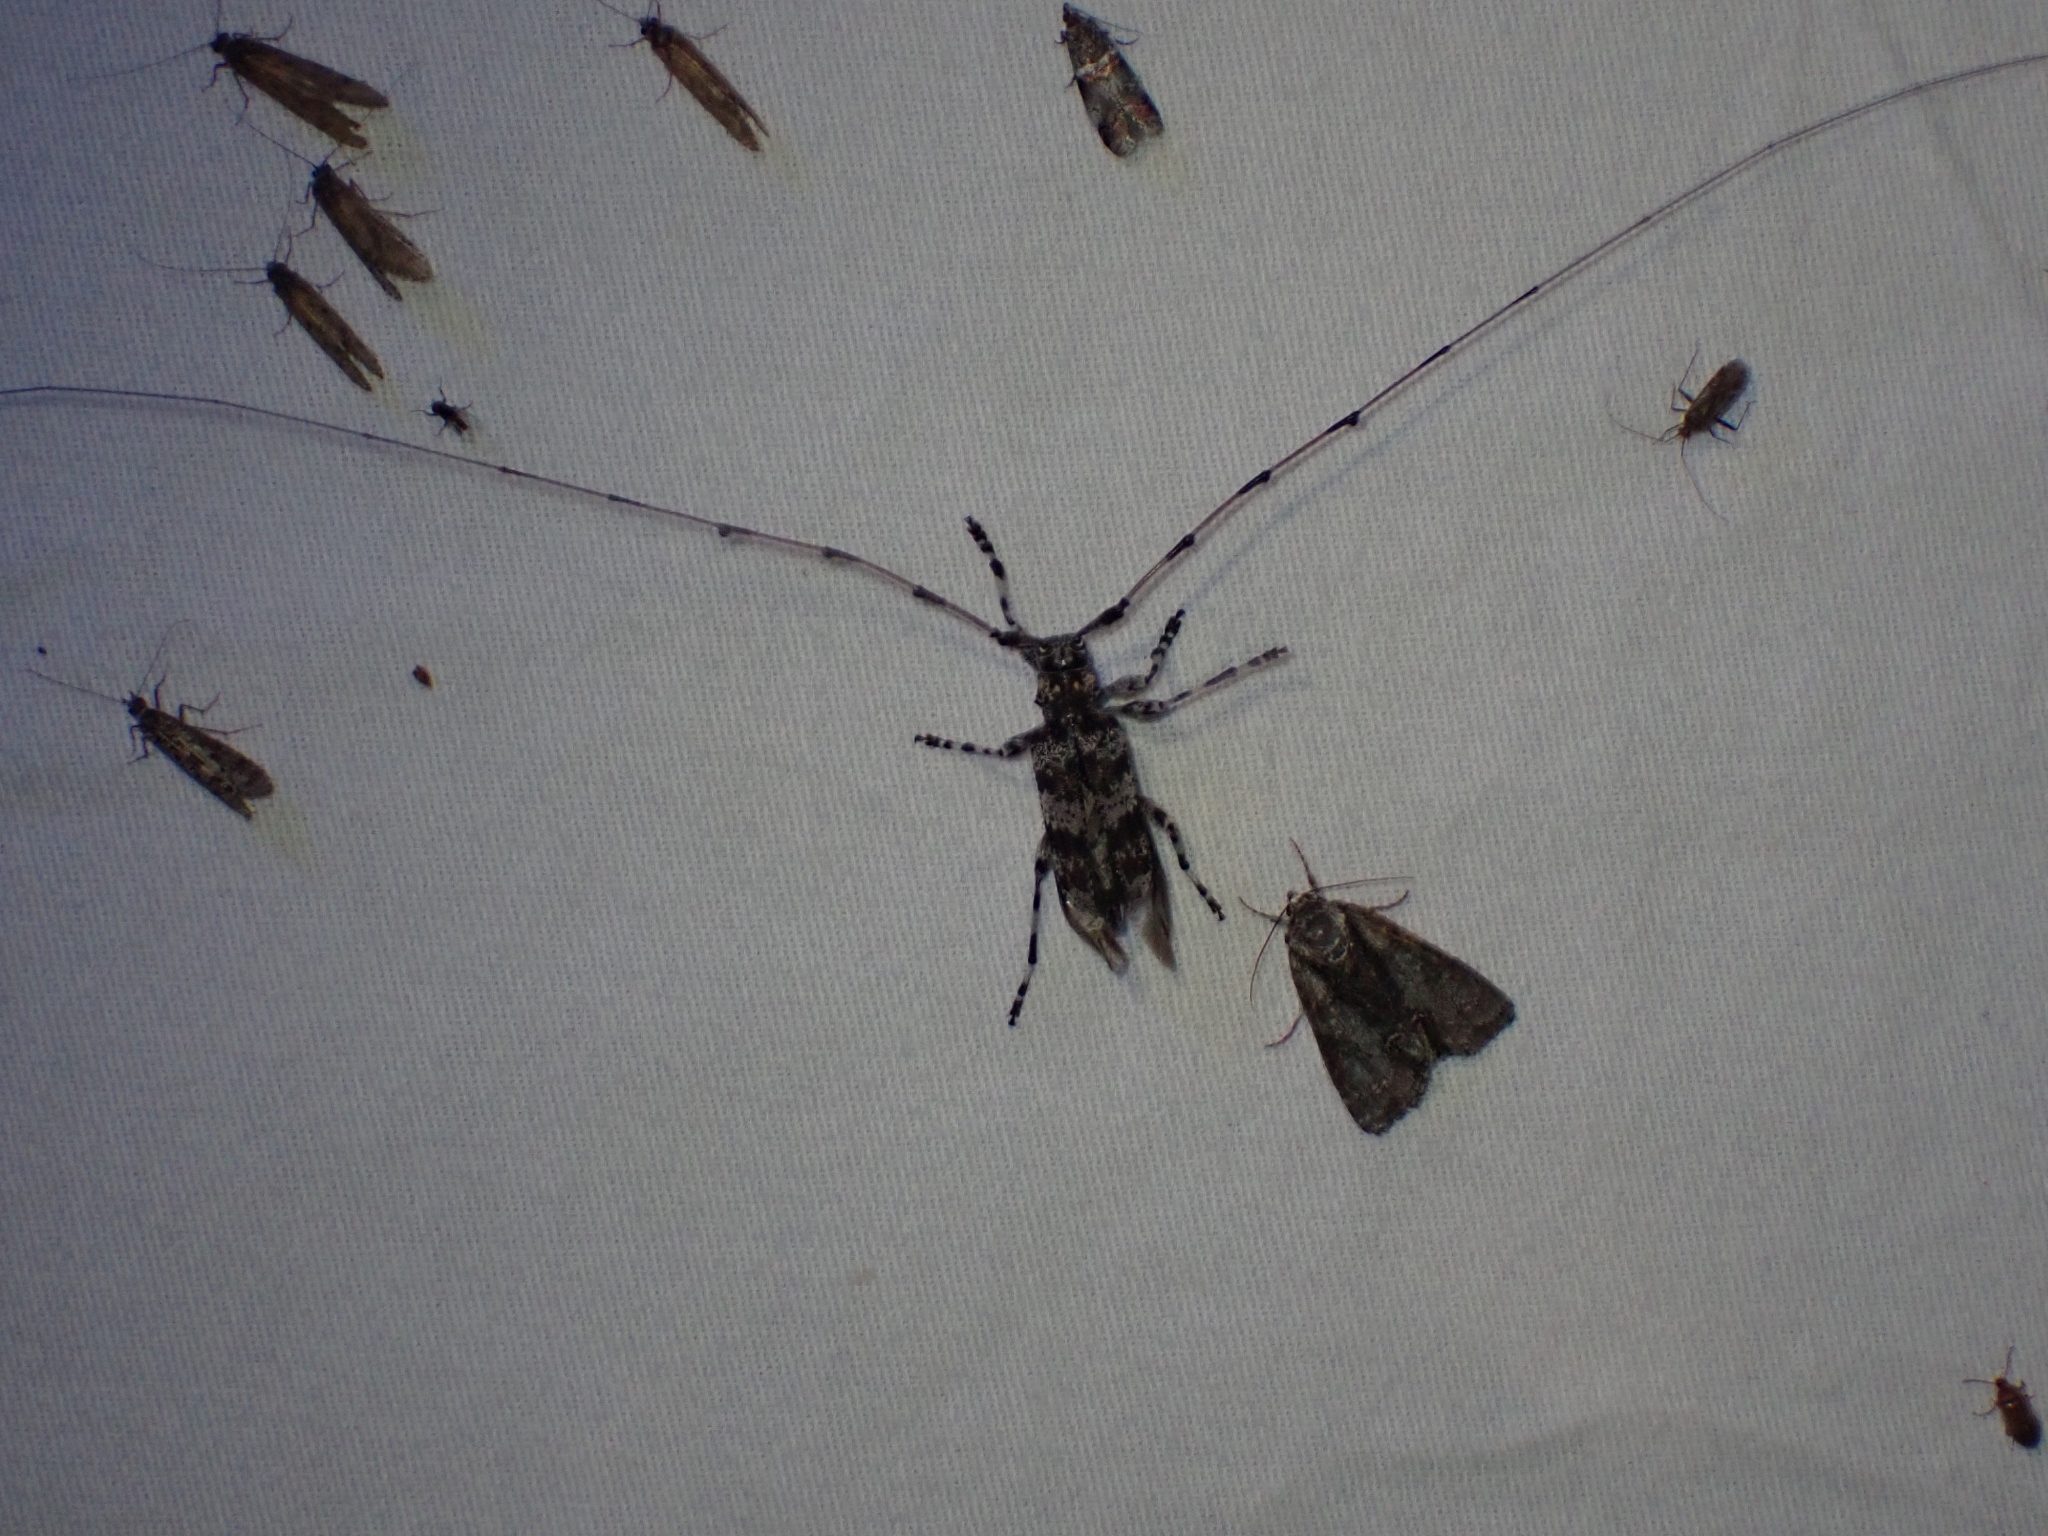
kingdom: Animalia
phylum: Arthropoda
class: Insecta
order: Coleoptera
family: Cerambycidae
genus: Acanthocinus
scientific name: Acanthocinus princeps
